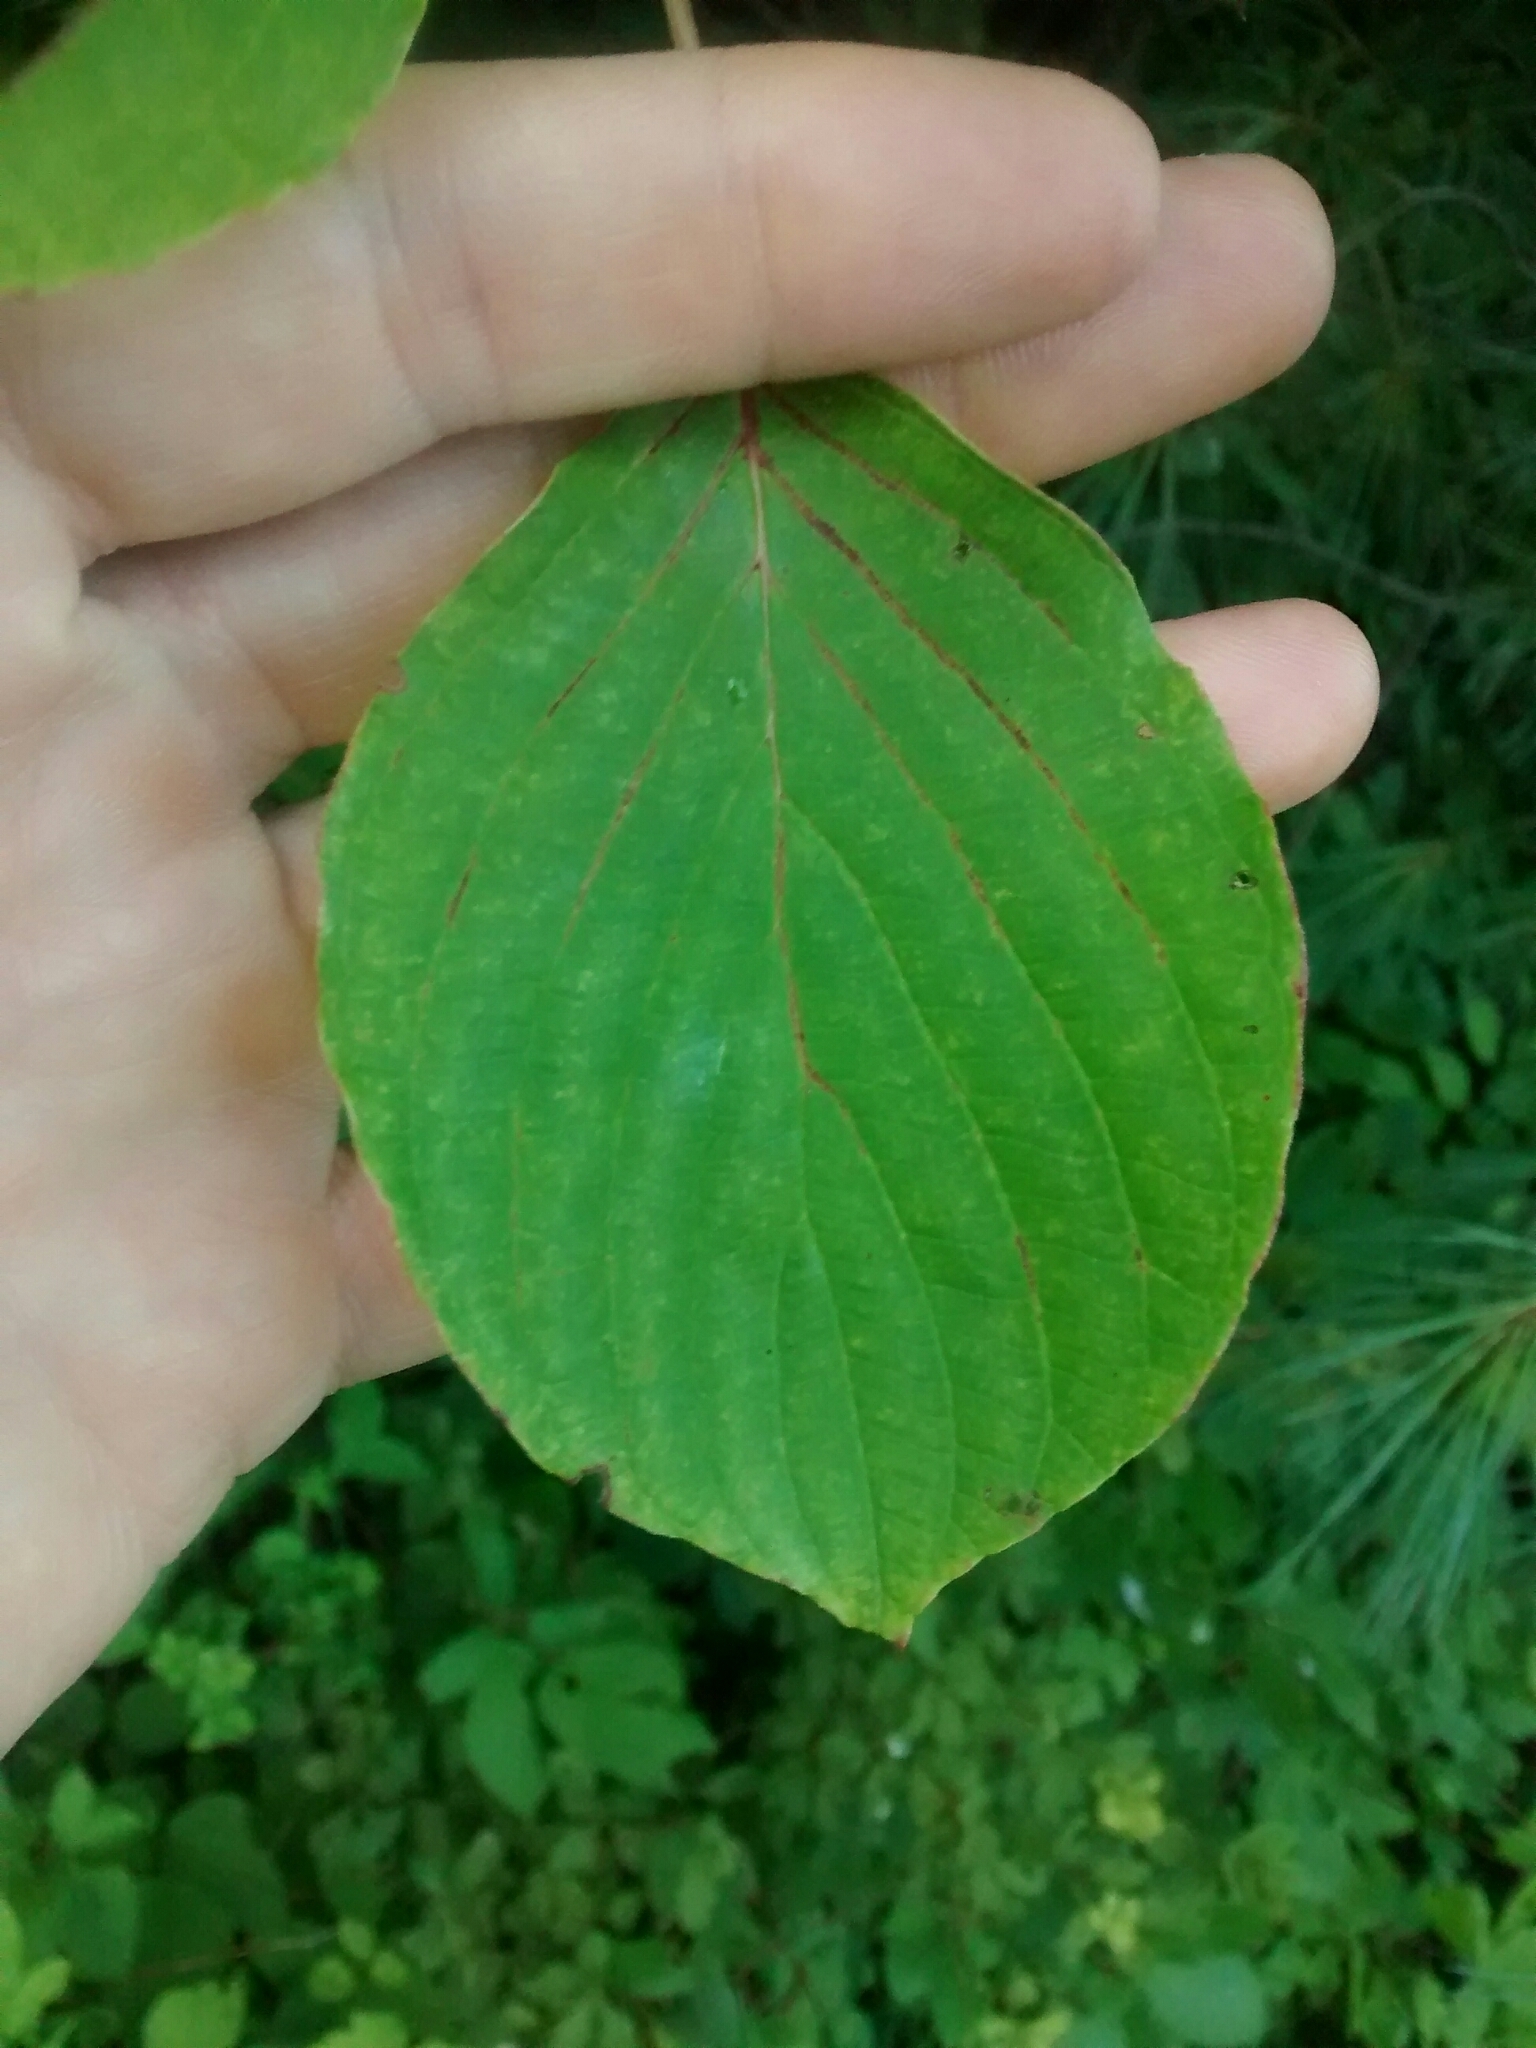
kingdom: Plantae
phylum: Tracheophyta
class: Magnoliopsida
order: Cornales
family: Cornaceae
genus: Cornus
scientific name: Cornus alternifolia
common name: Pagoda dogwood
